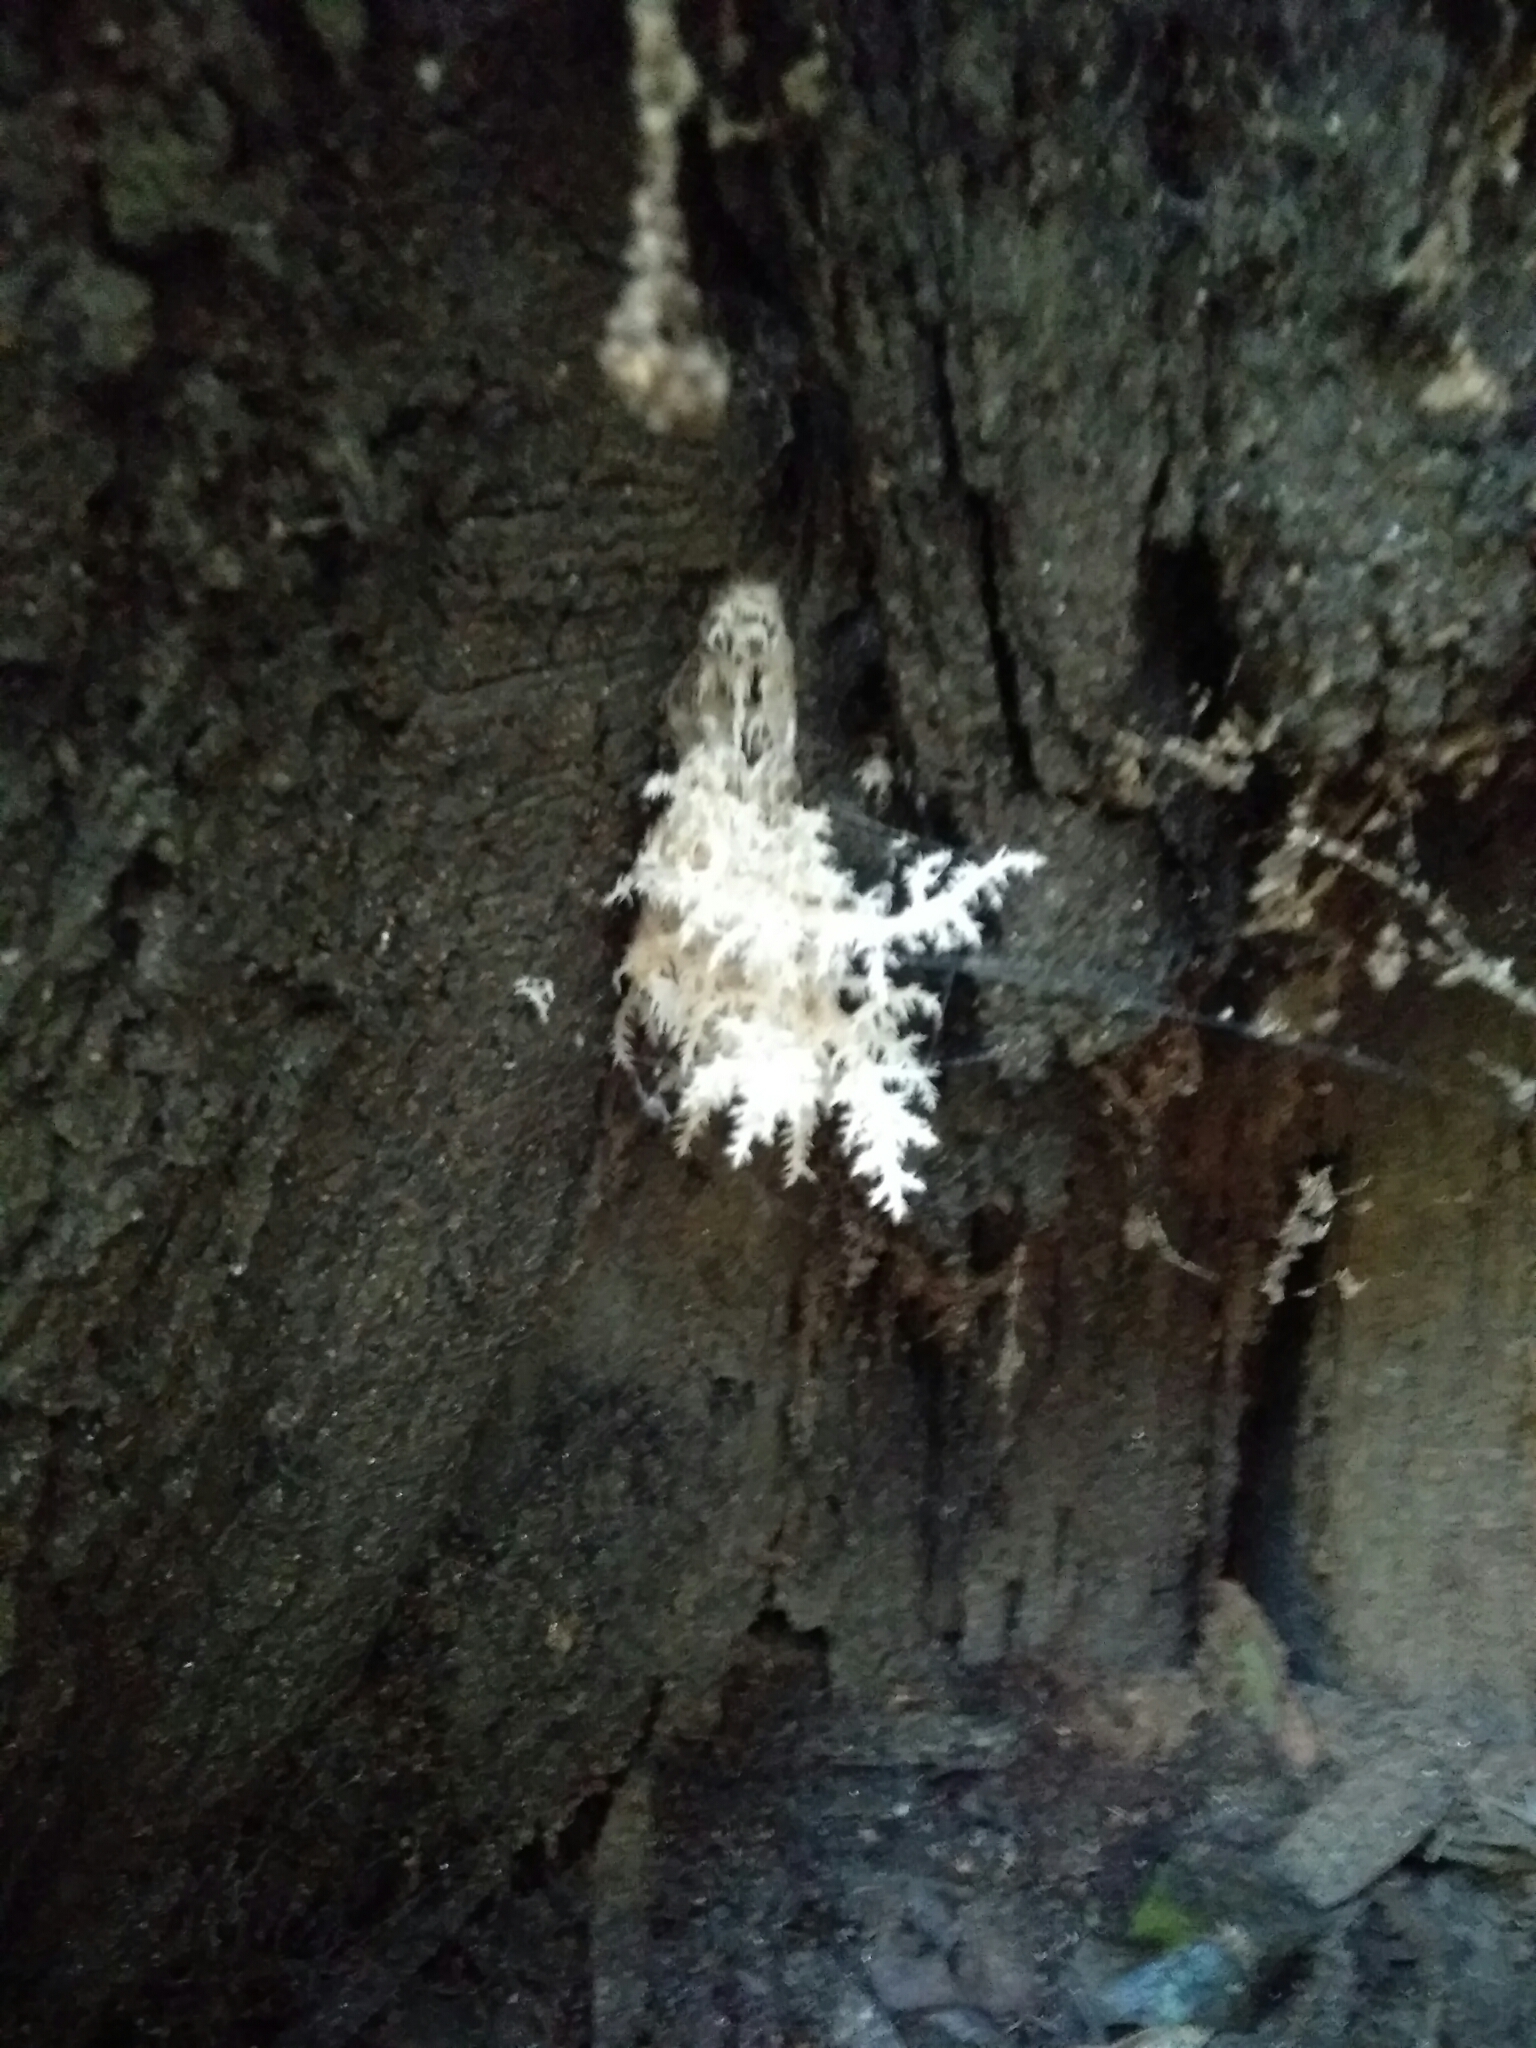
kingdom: Fungi
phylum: Basidiomycota
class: Agaricomycetes
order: Russulales
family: Hericiaceae
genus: Hericium
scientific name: Hericium coralloides
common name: Coral tooth
